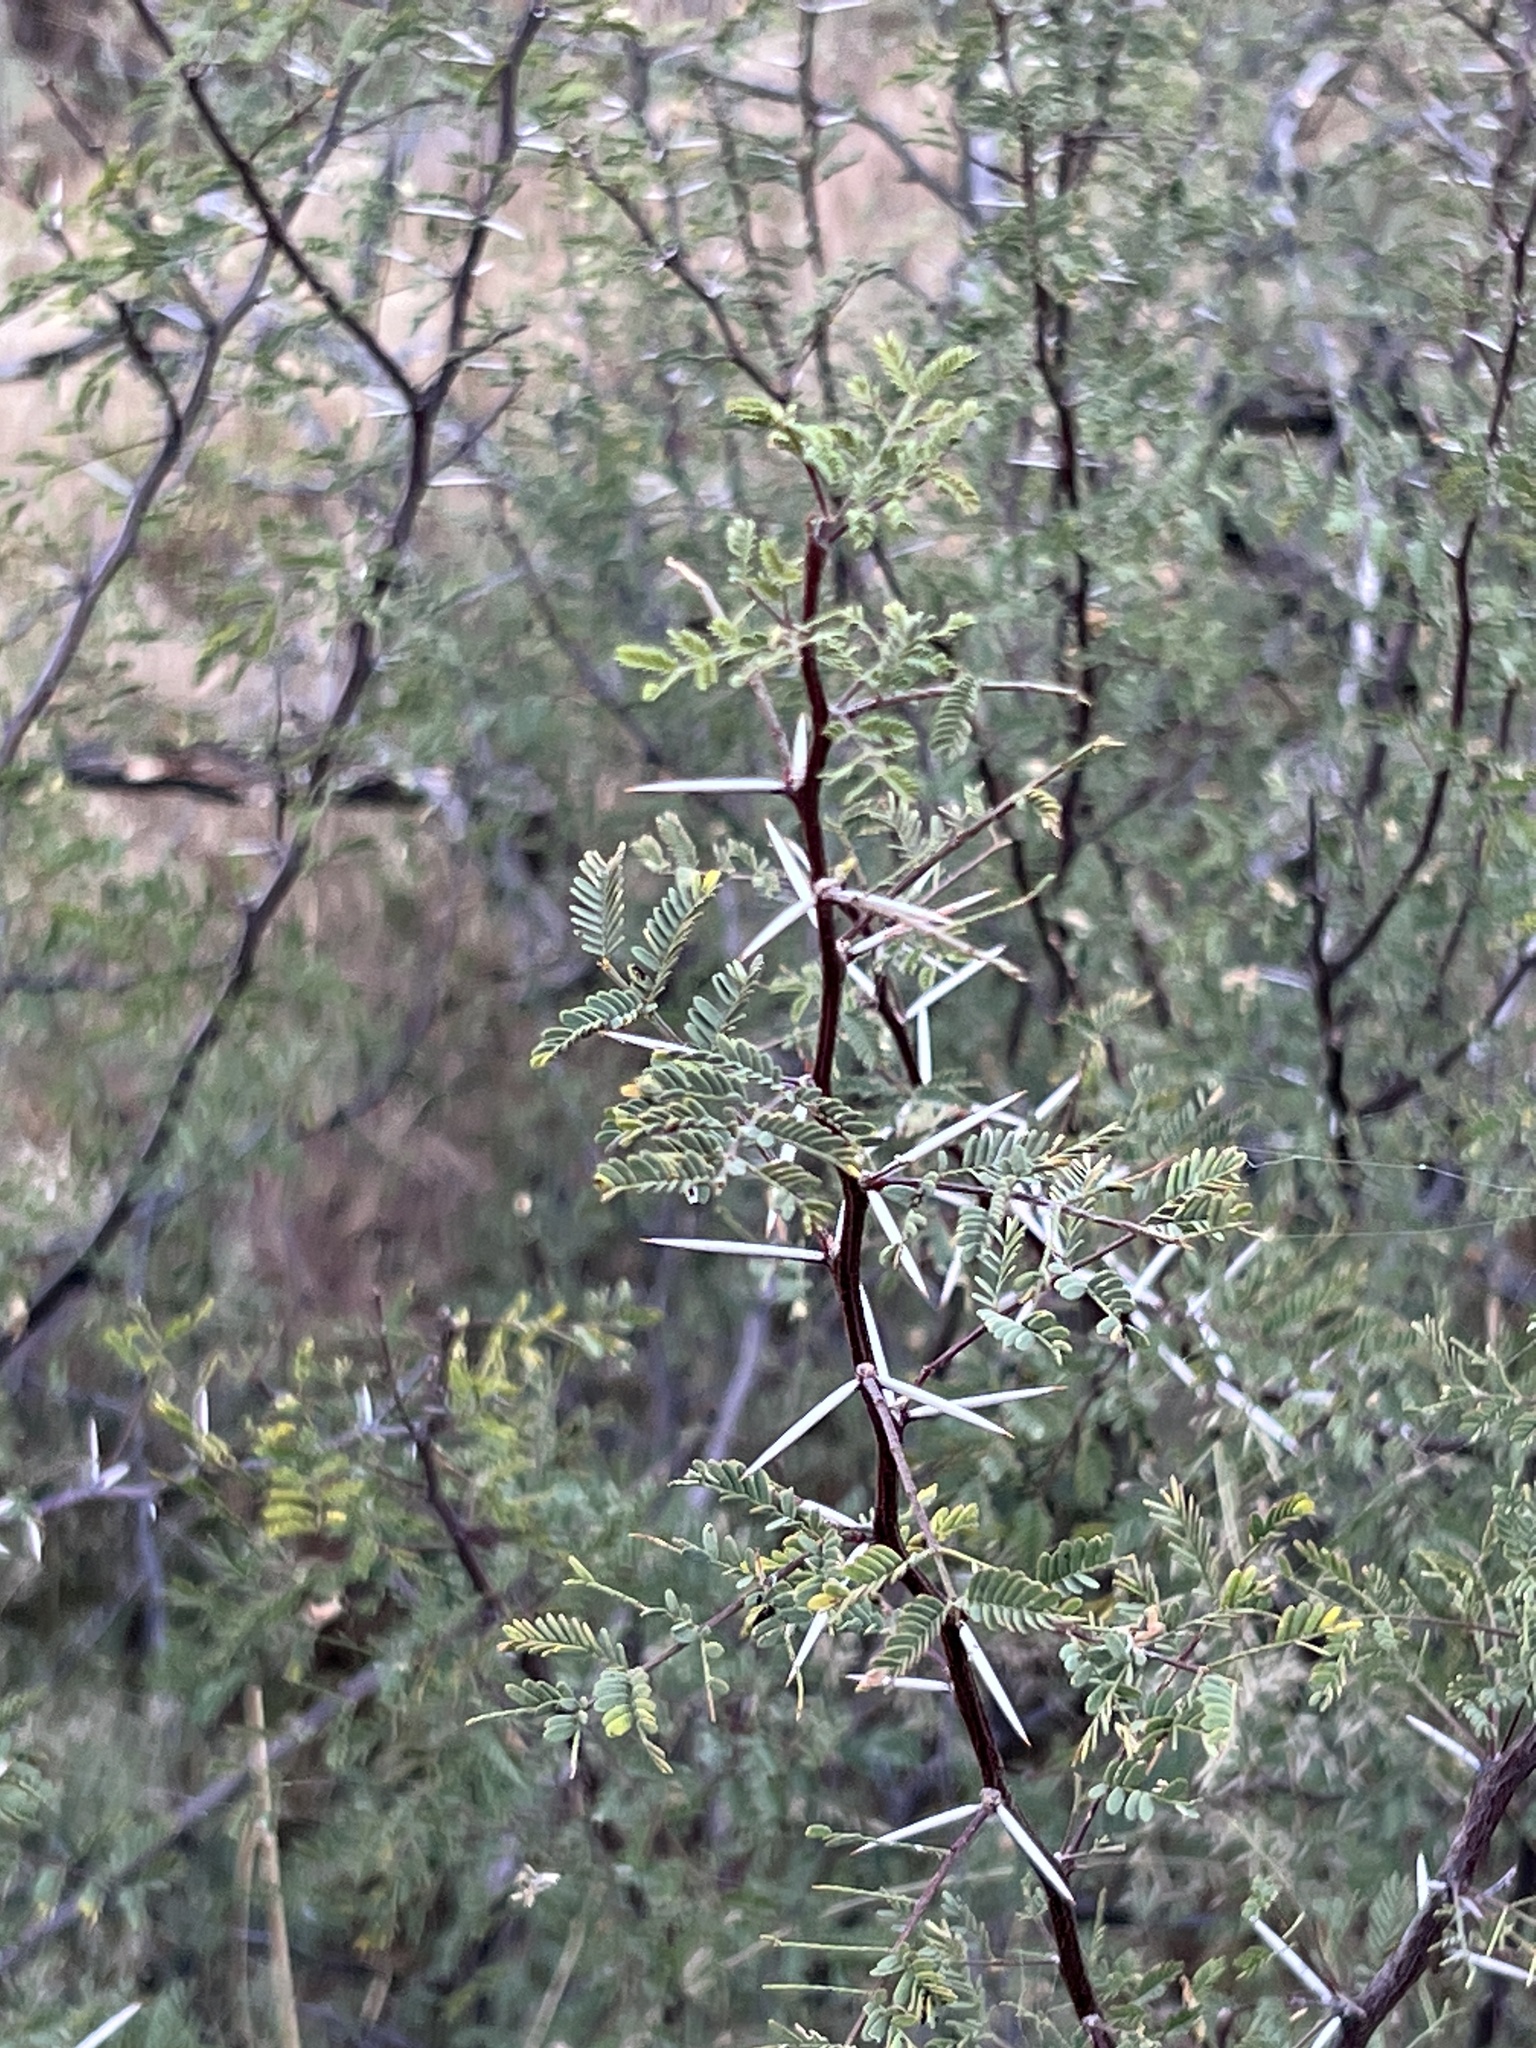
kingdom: Plantae
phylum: Tracheophyta
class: Magnoliopsida
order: Fabales
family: Fabaceae
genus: Vachellia
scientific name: Vachellia constricta
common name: Mescat acacia
